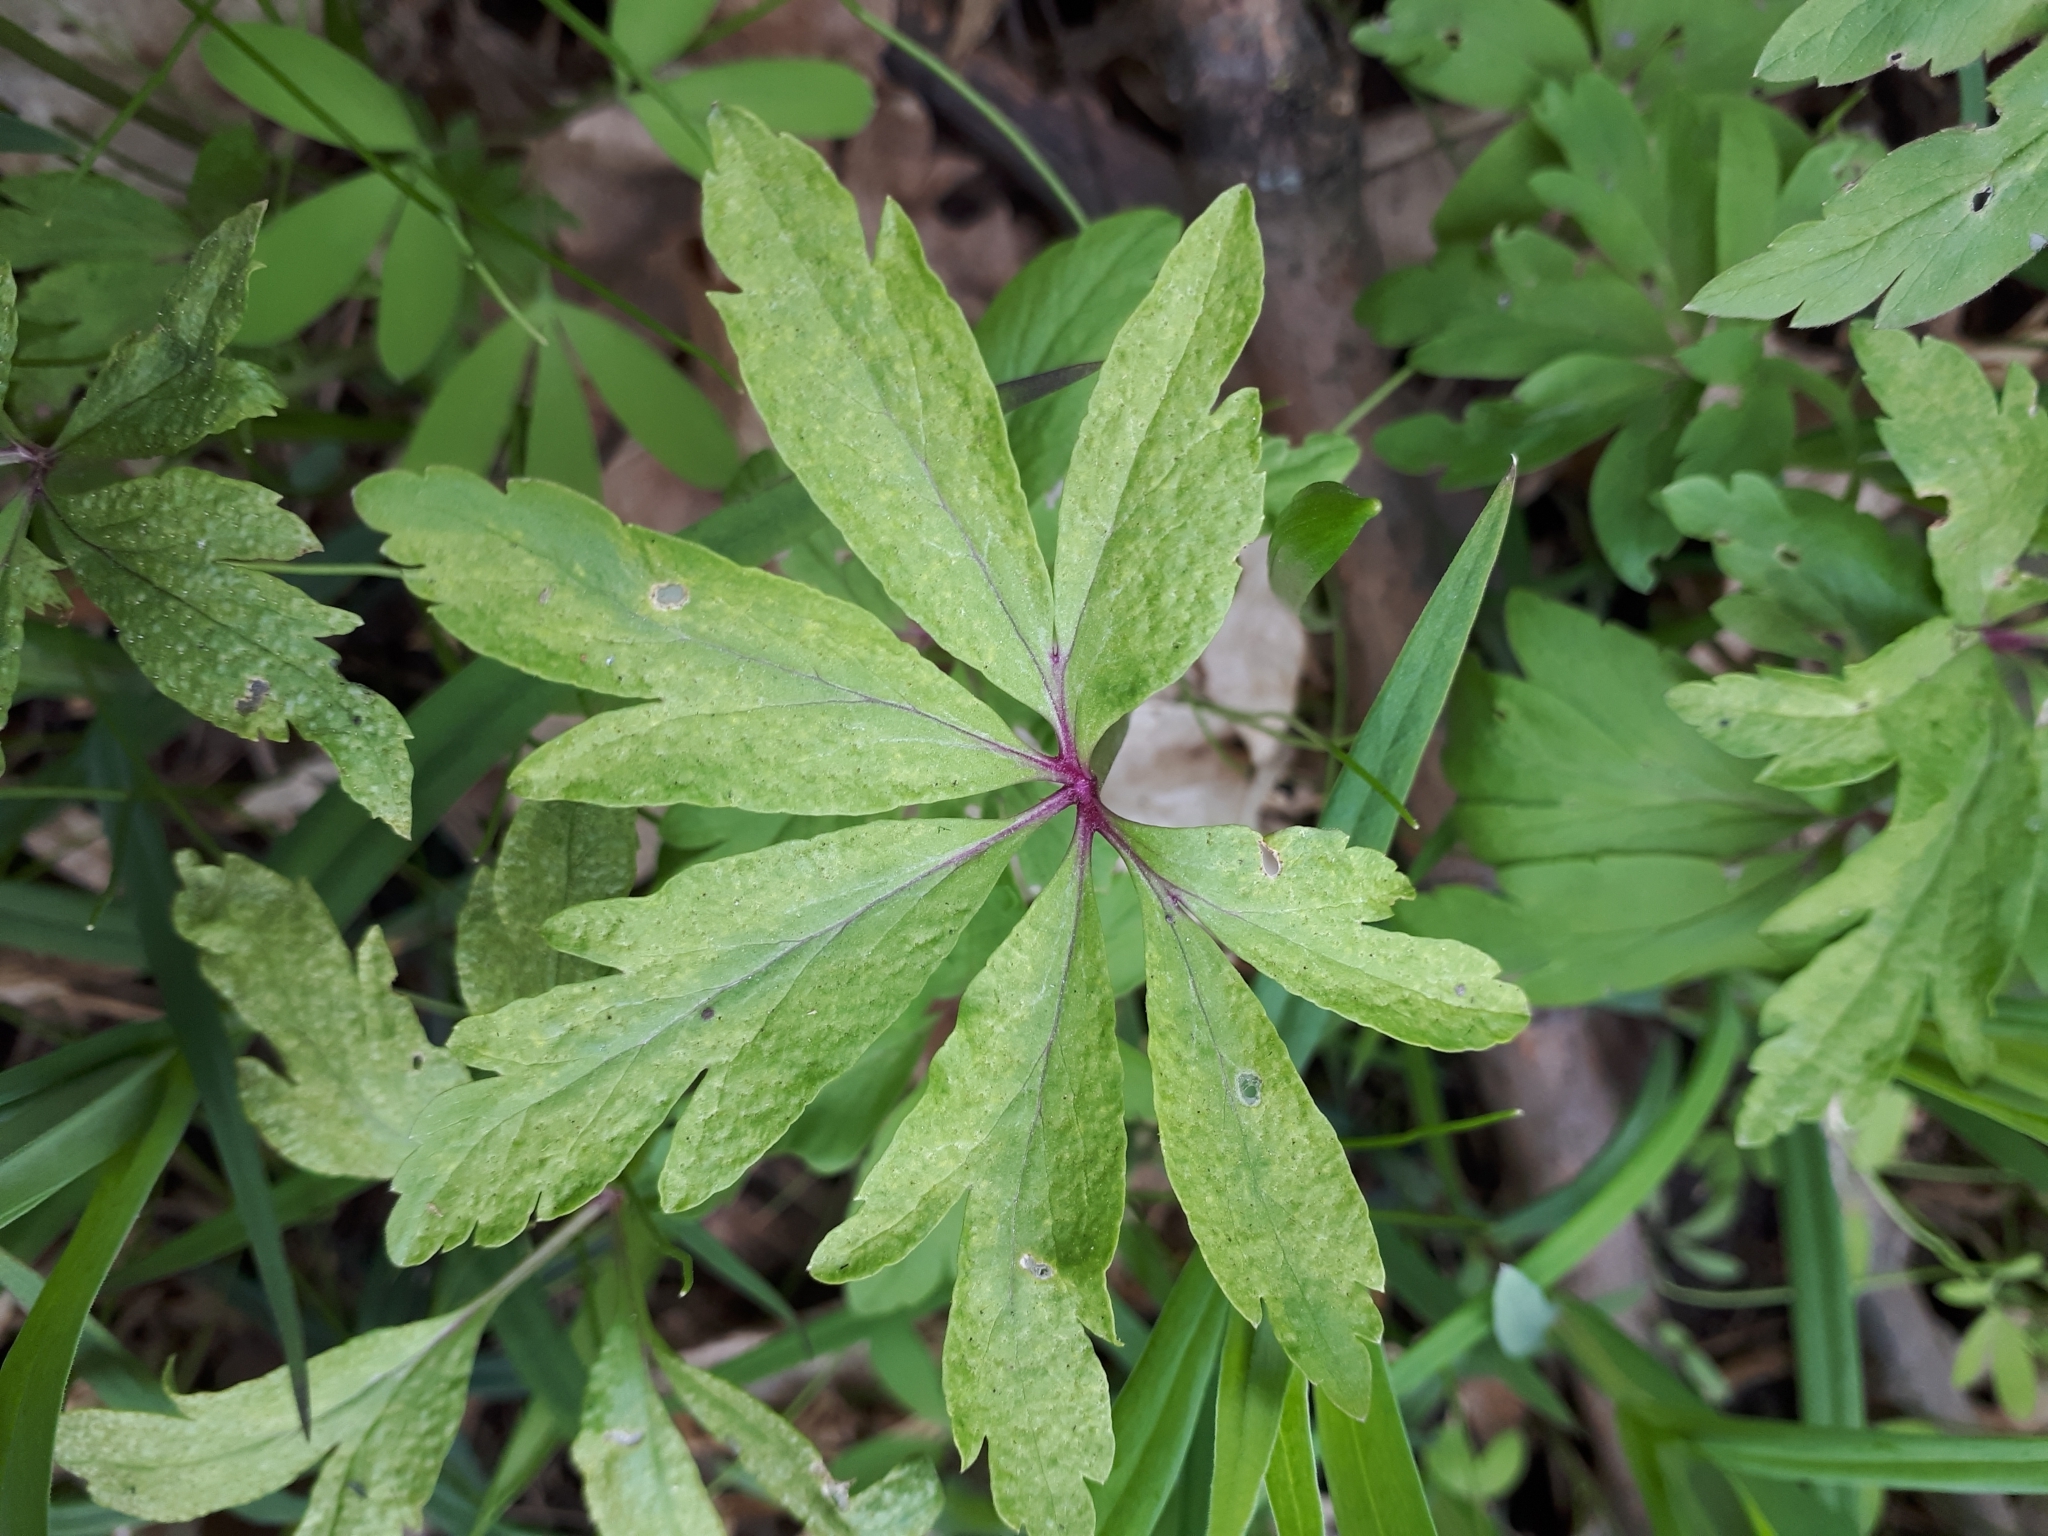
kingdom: Plantae
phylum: Tracheophyta
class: Magnoliopsida
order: Ranunculales
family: Ranunculaceae
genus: Anemone
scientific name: Anemone ranunculoides
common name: Yellow anemone
